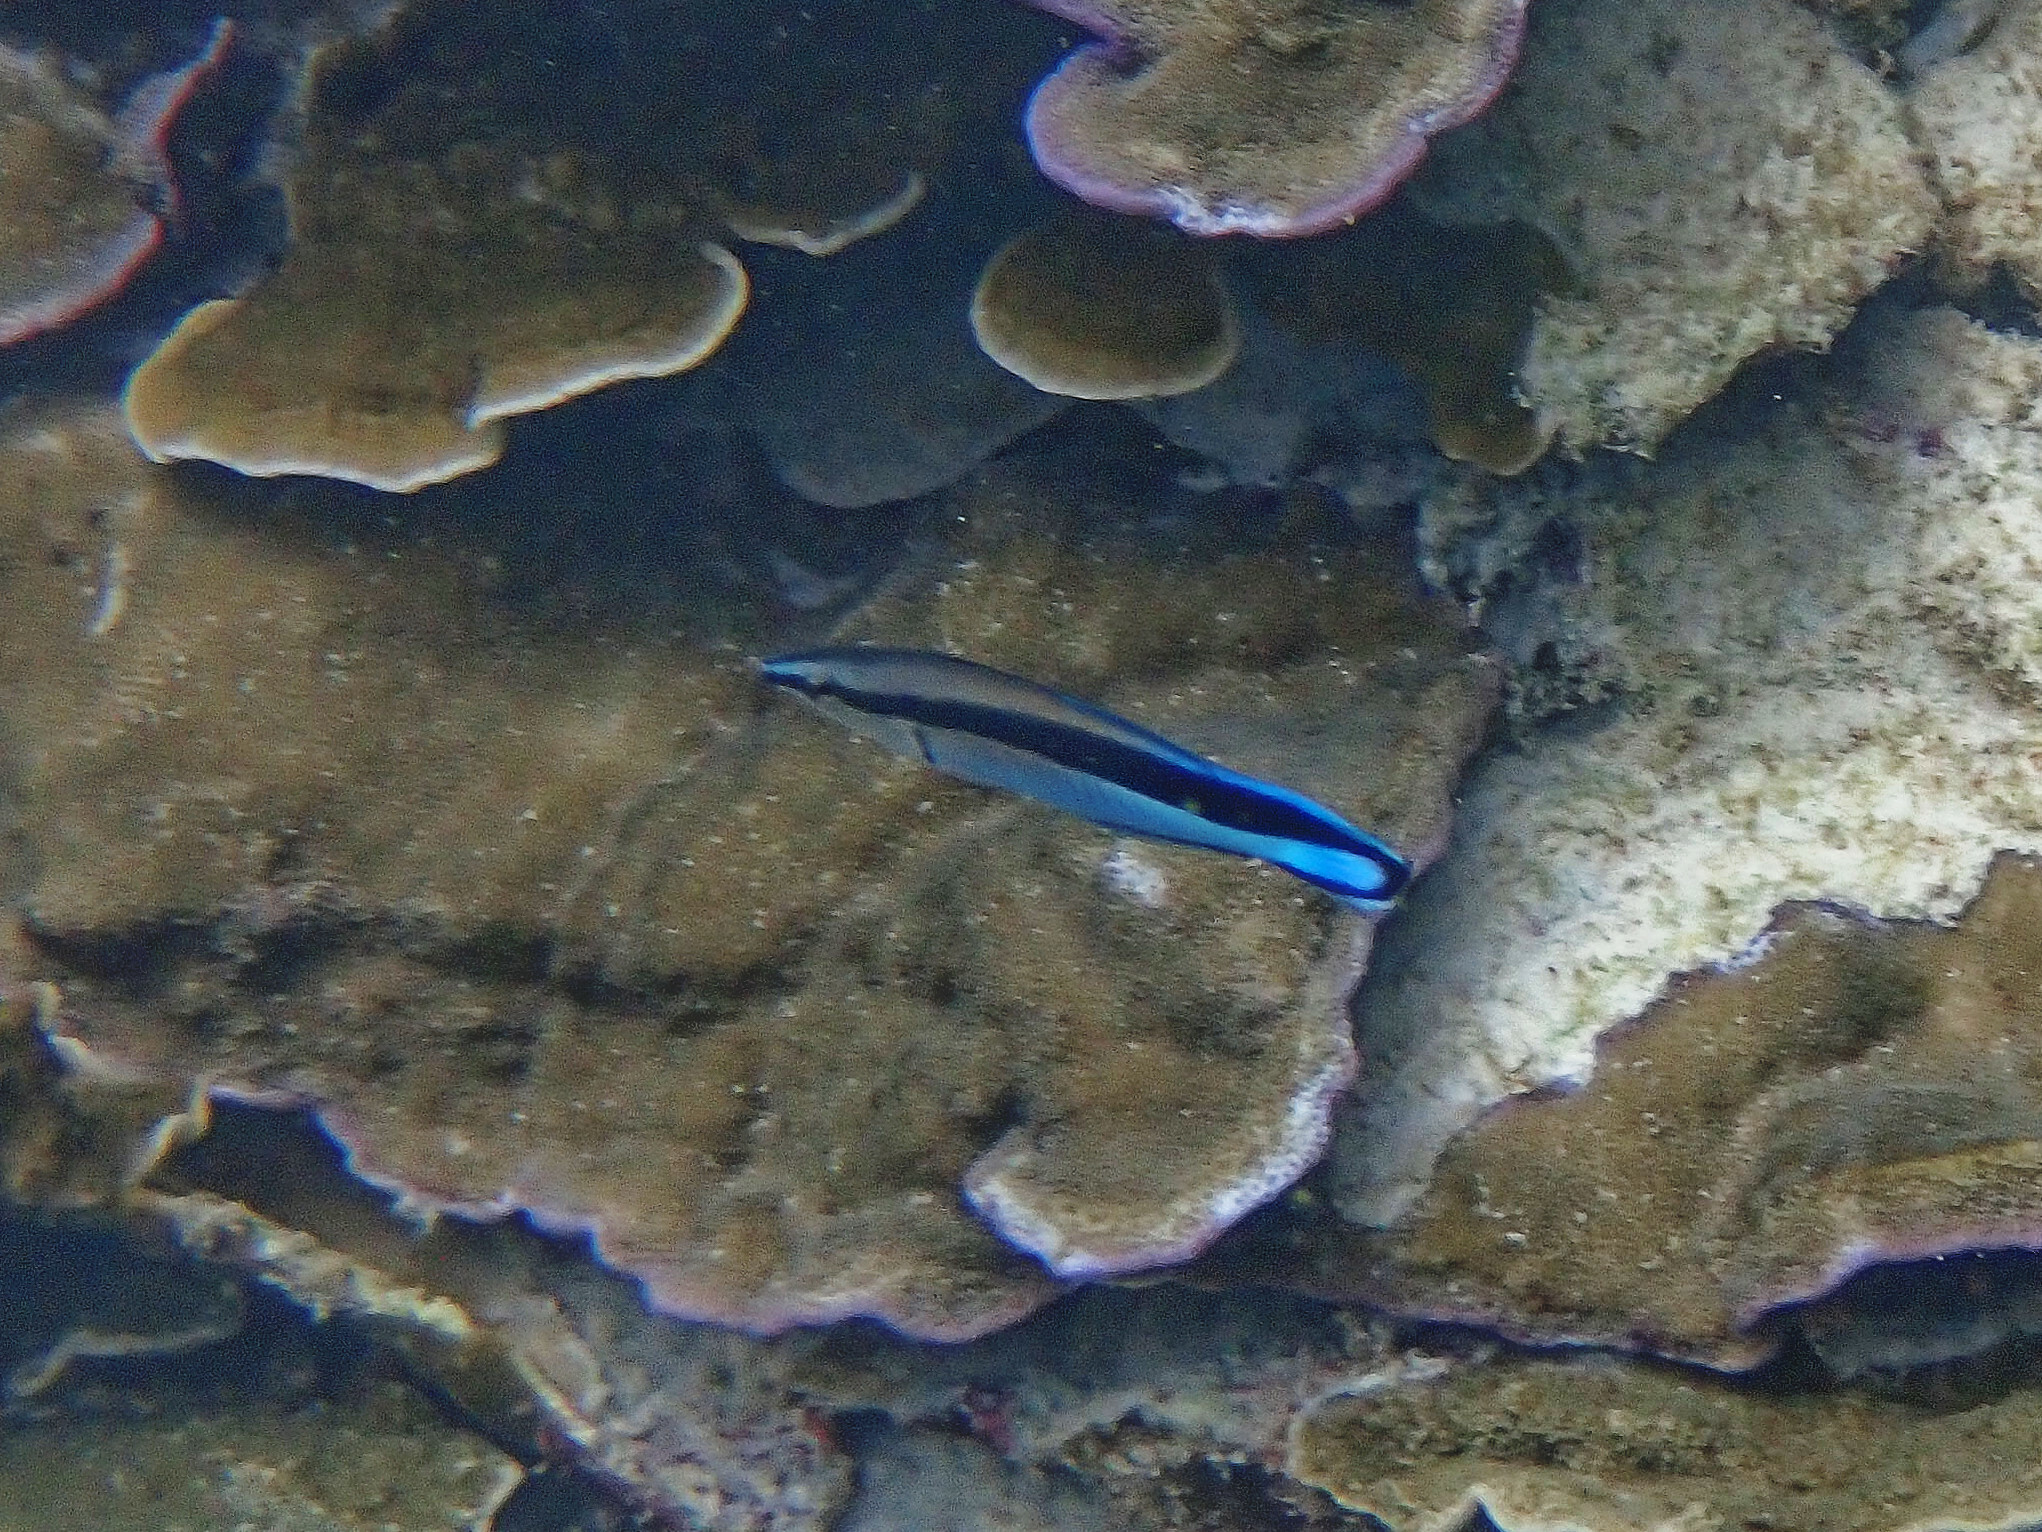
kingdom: Animalia
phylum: Chordata
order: Perciformes
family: Labridae
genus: Labroides
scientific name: Labroides dimidiatus
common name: Blue diesel wrasse
